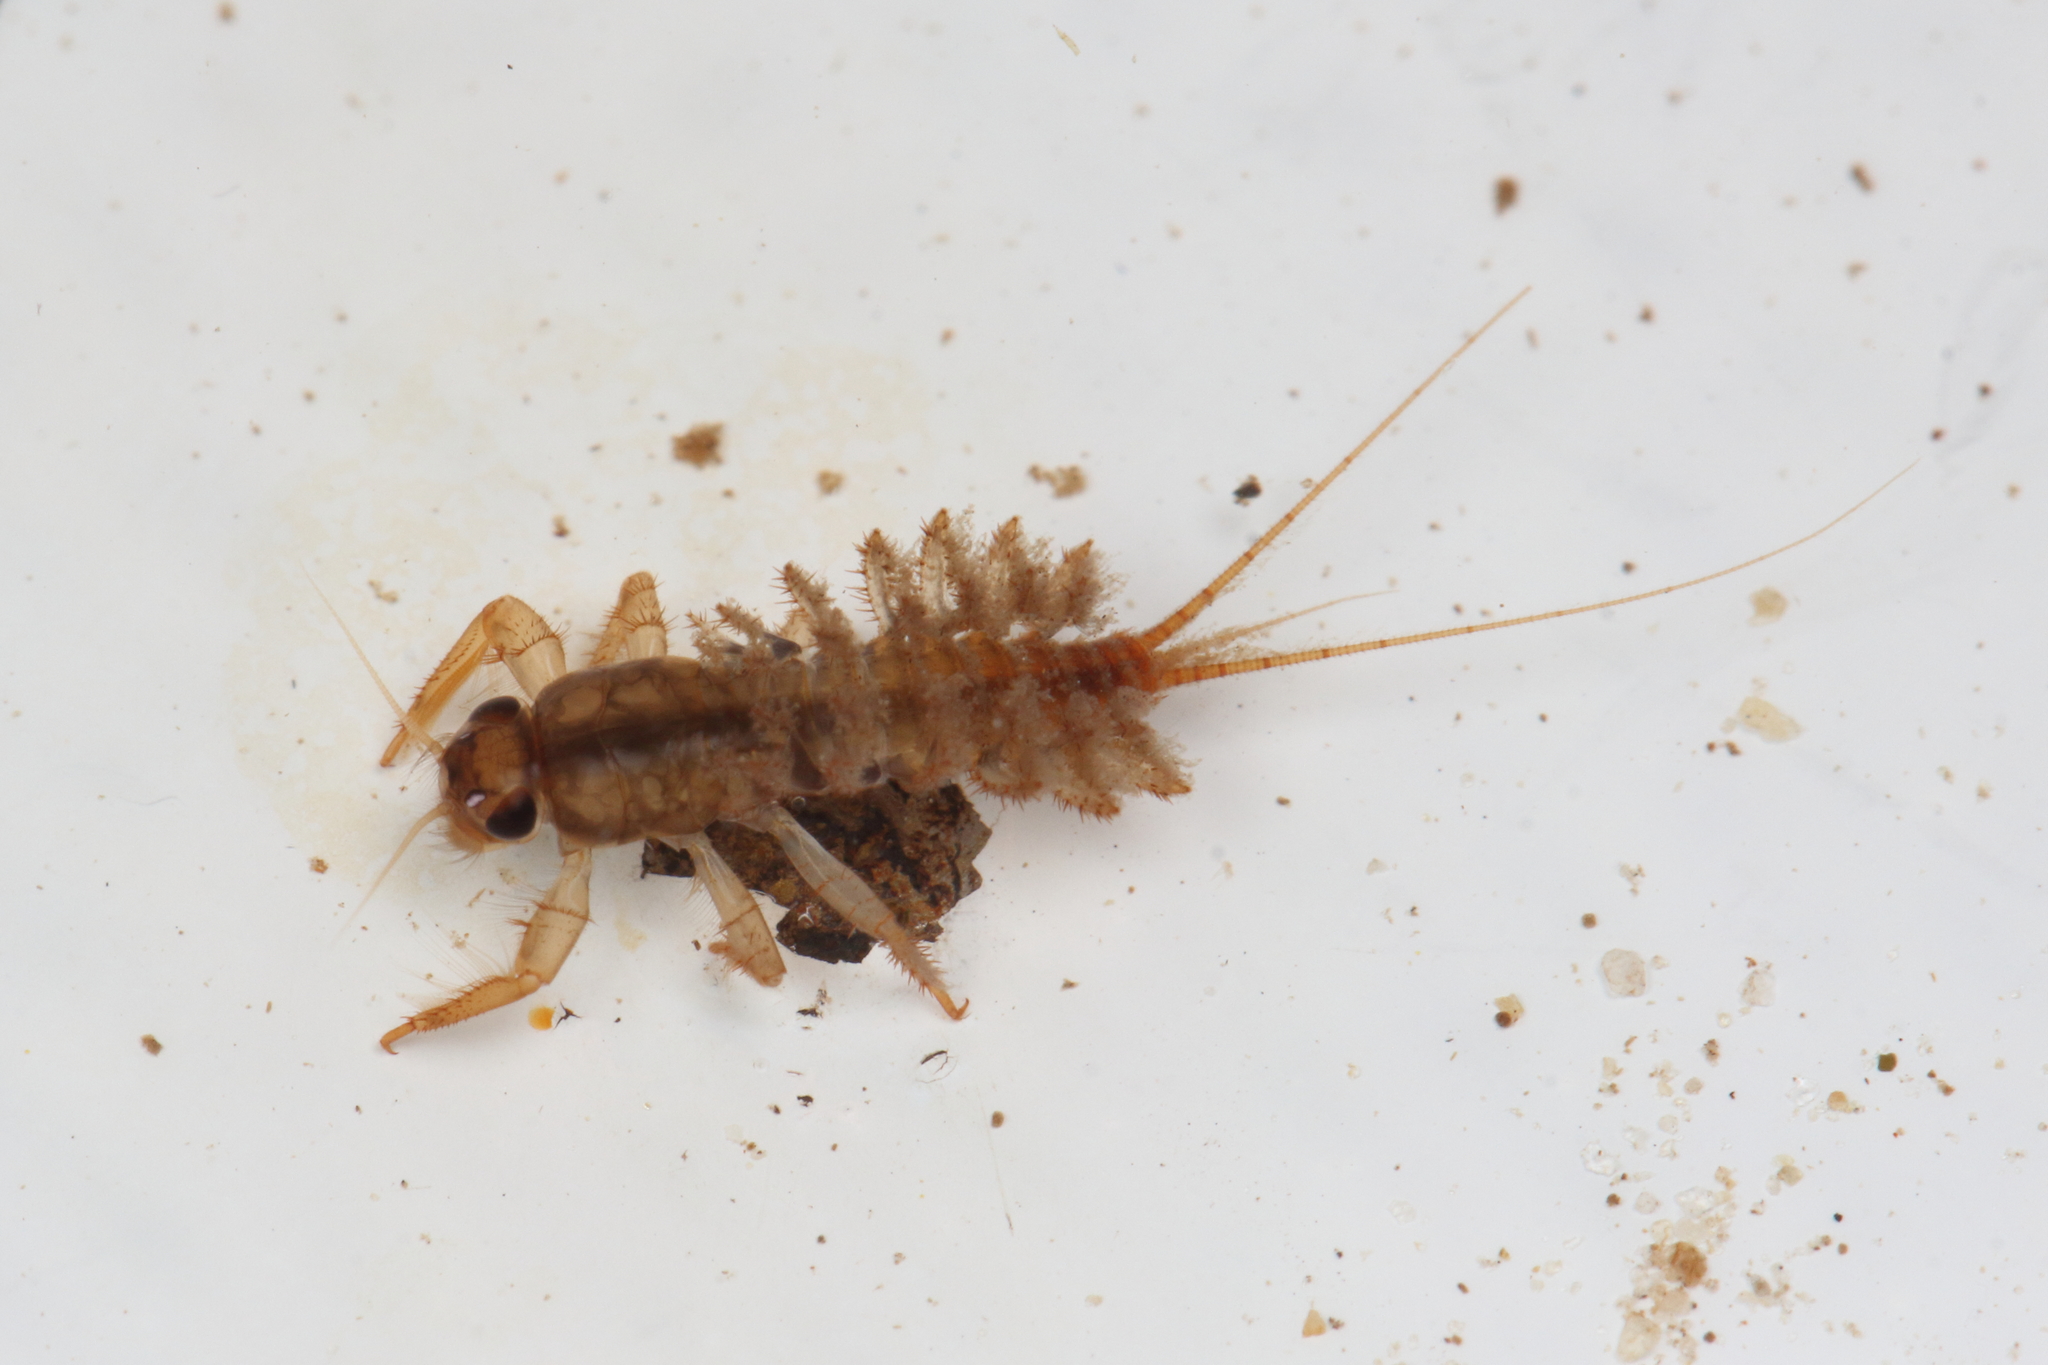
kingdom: Animalia
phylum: Arthropoda
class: Insecta
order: Ephemeroptera
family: Coloburiscidae
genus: Coloburiscus
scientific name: Coloburiscus humeralis
